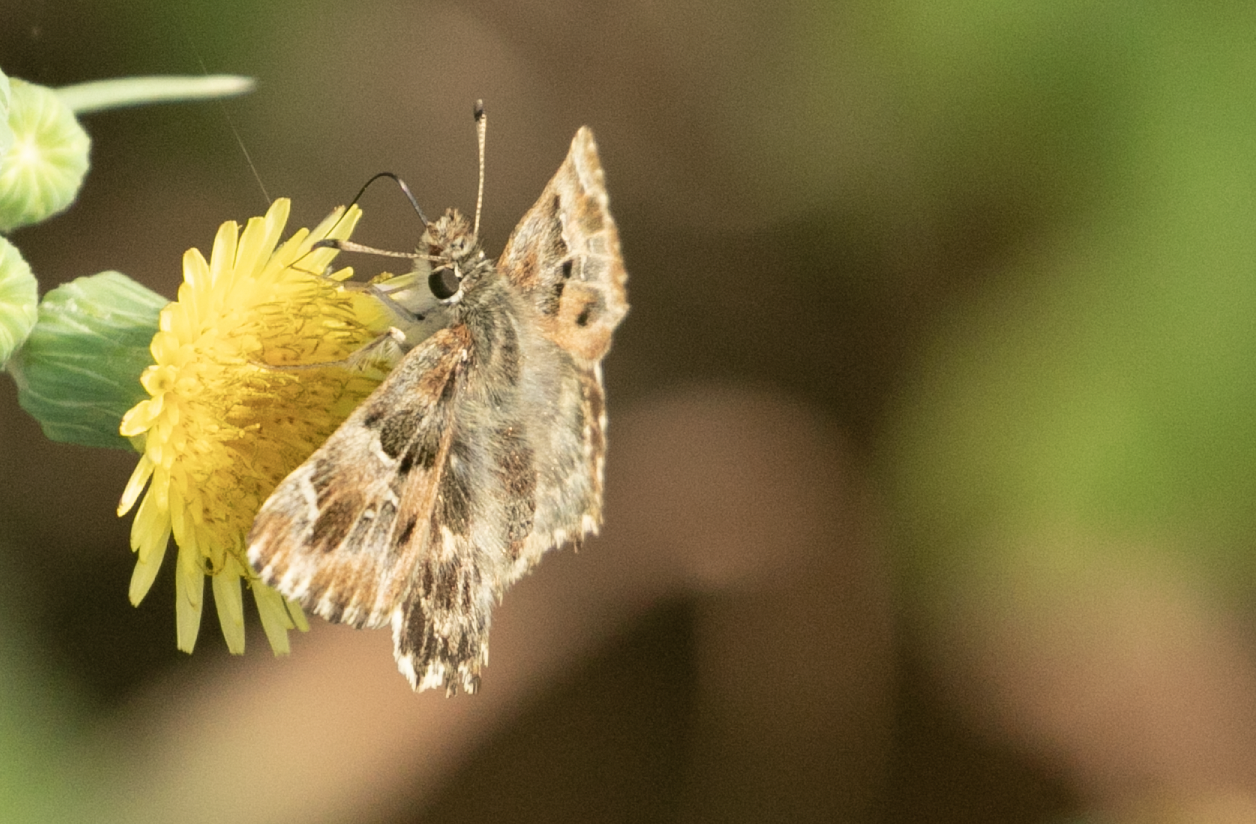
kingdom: Animalia
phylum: Arthropoda
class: Insecta
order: Lepidoptera
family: Hesperiidae
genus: Carcharodus
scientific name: Carcharodus alceae
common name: Mallow skipper
